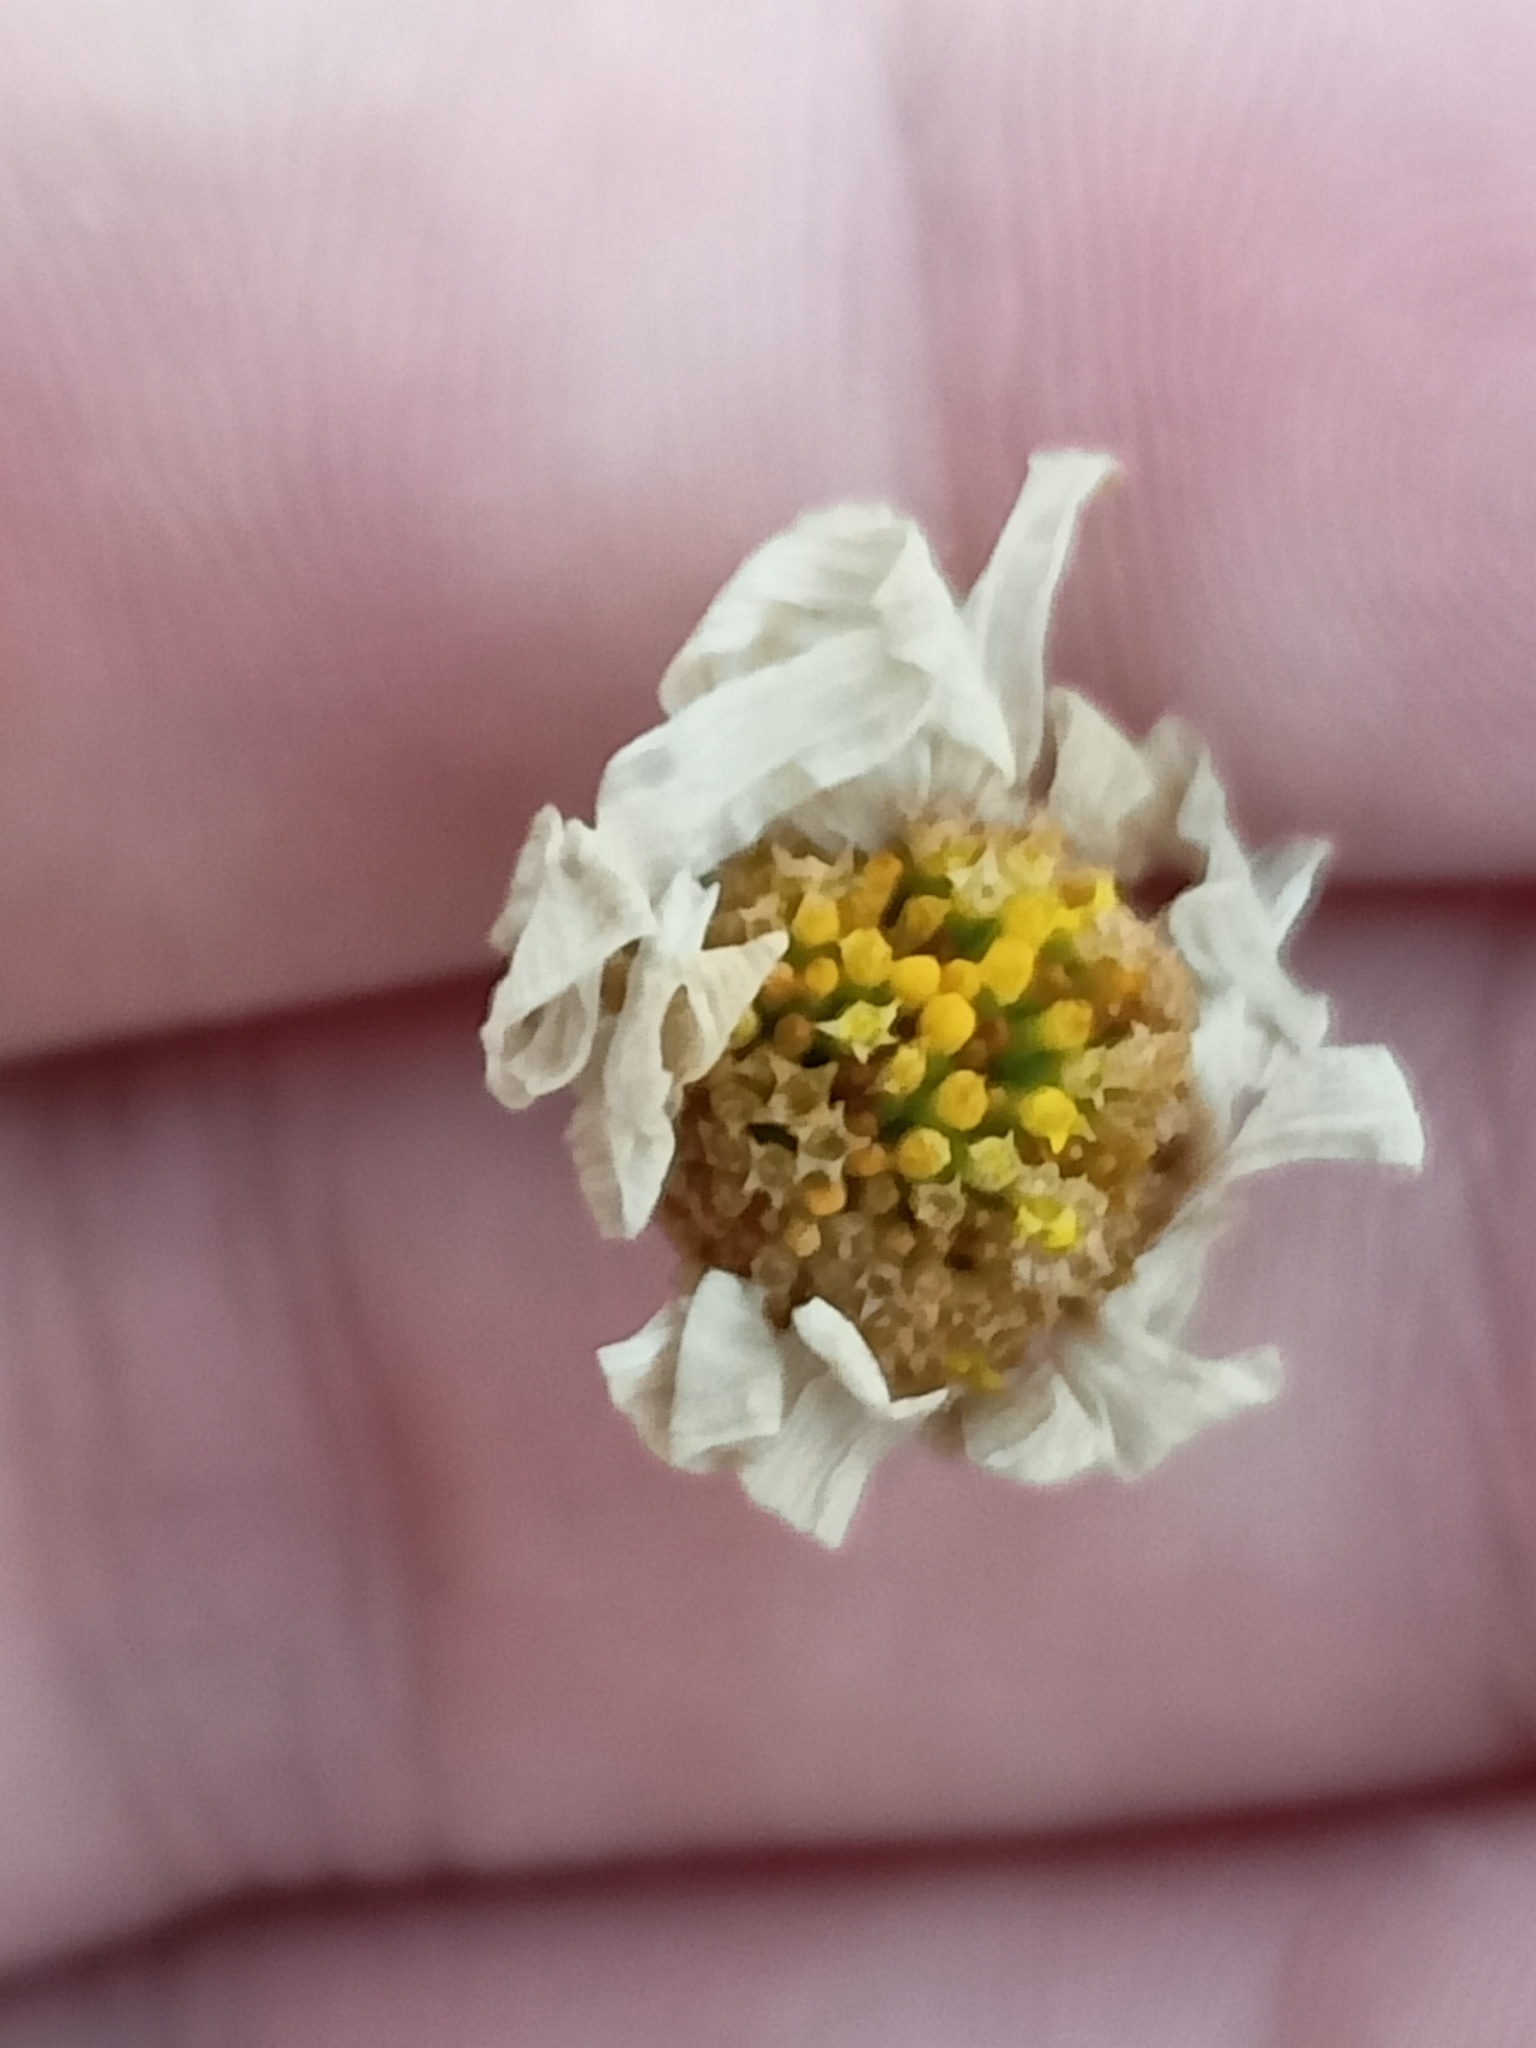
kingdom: Plantae
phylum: Tracheophyta
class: Magnoliopsida
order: Asterales
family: Asteraceae
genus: Tripleurospermum
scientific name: Tripleurospermum inodorum
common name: Scentless mayweed
